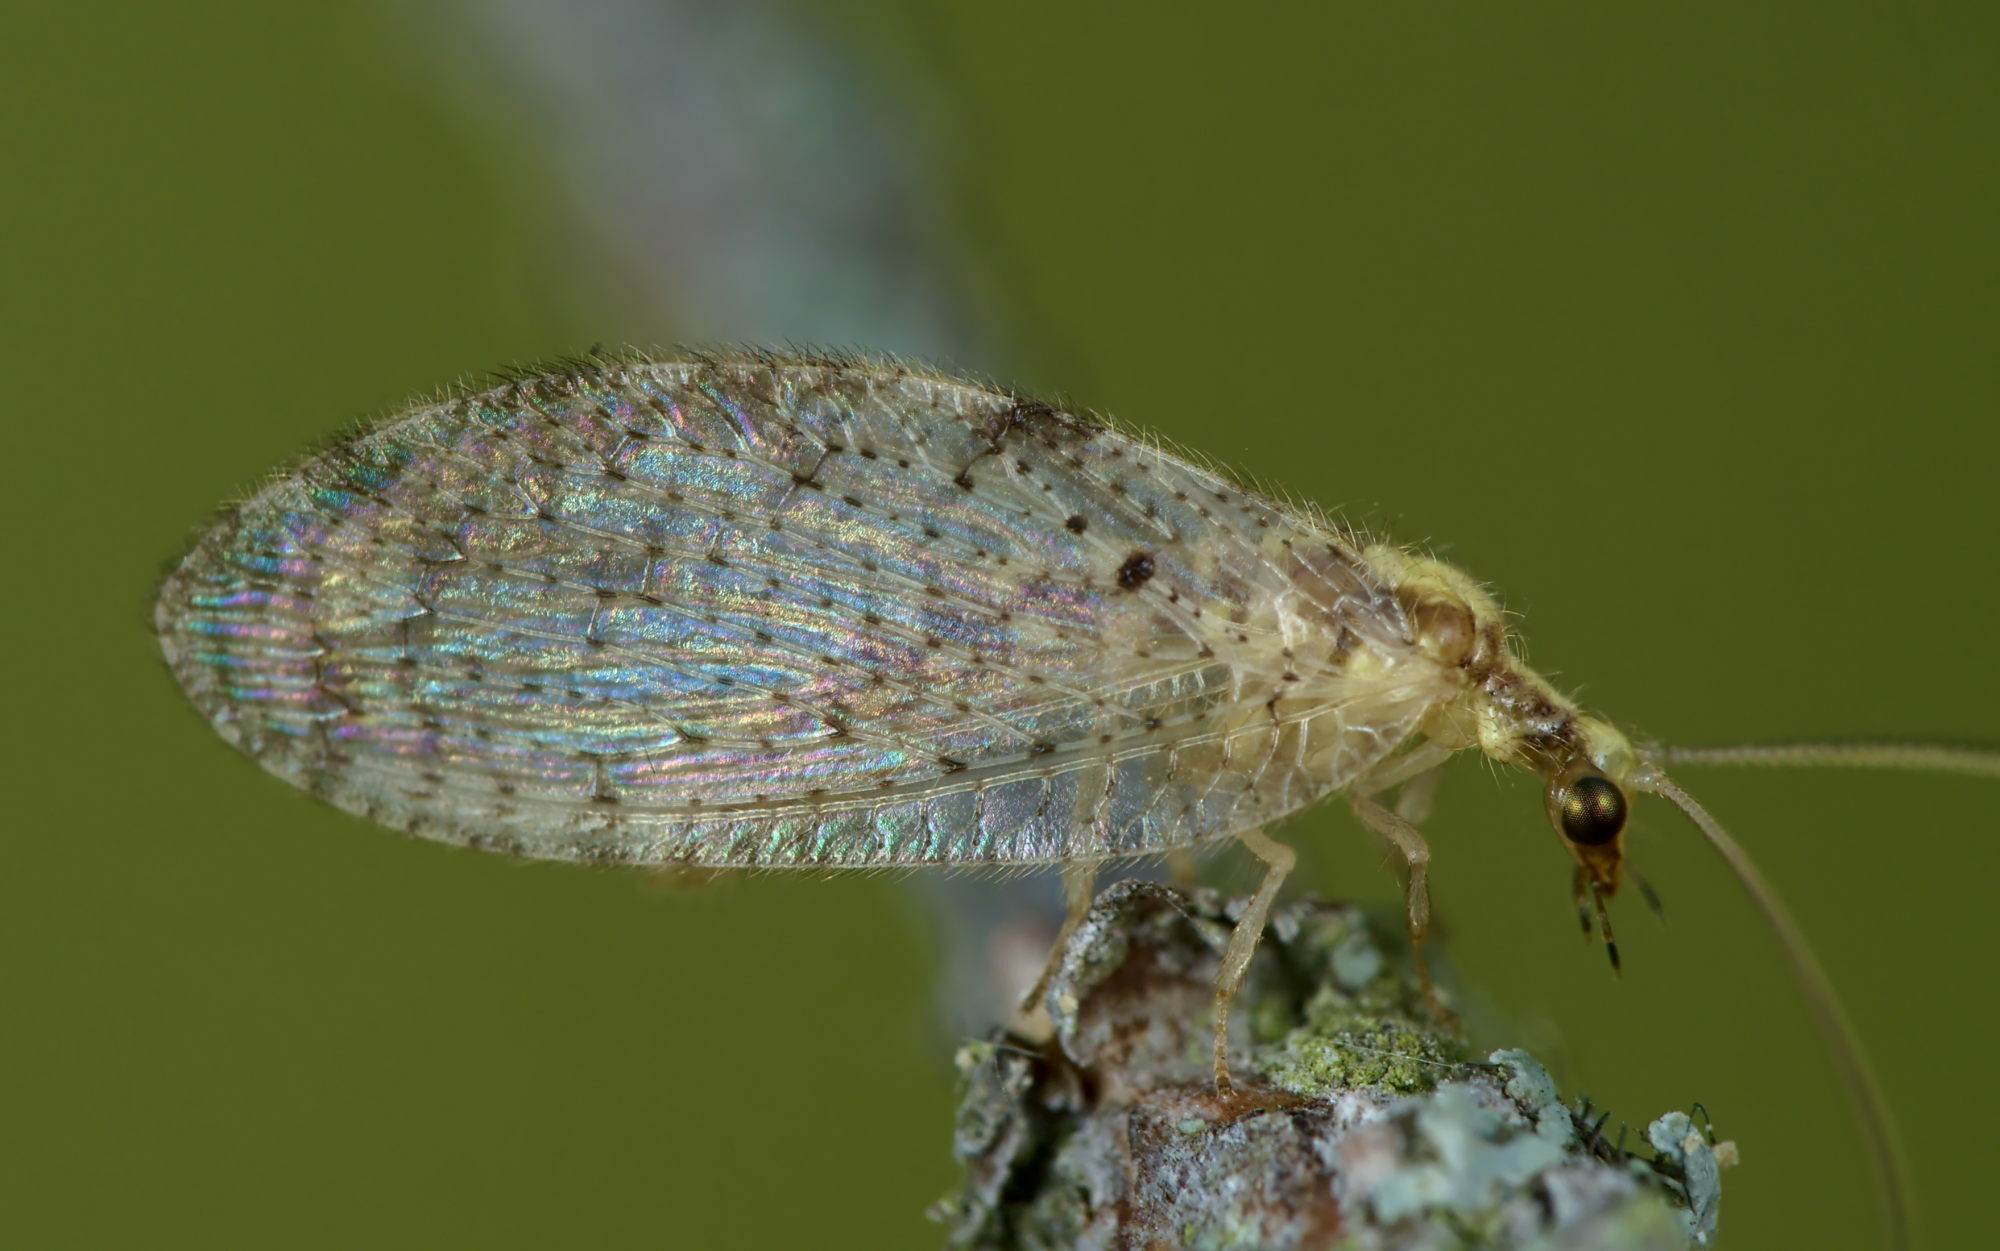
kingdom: Animalia
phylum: Arthropoda
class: Insecta
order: Neuroptera
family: Hemerobiidae
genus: Hemerobius
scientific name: Hemerobius humulinus
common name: Humulin brown lacewing
